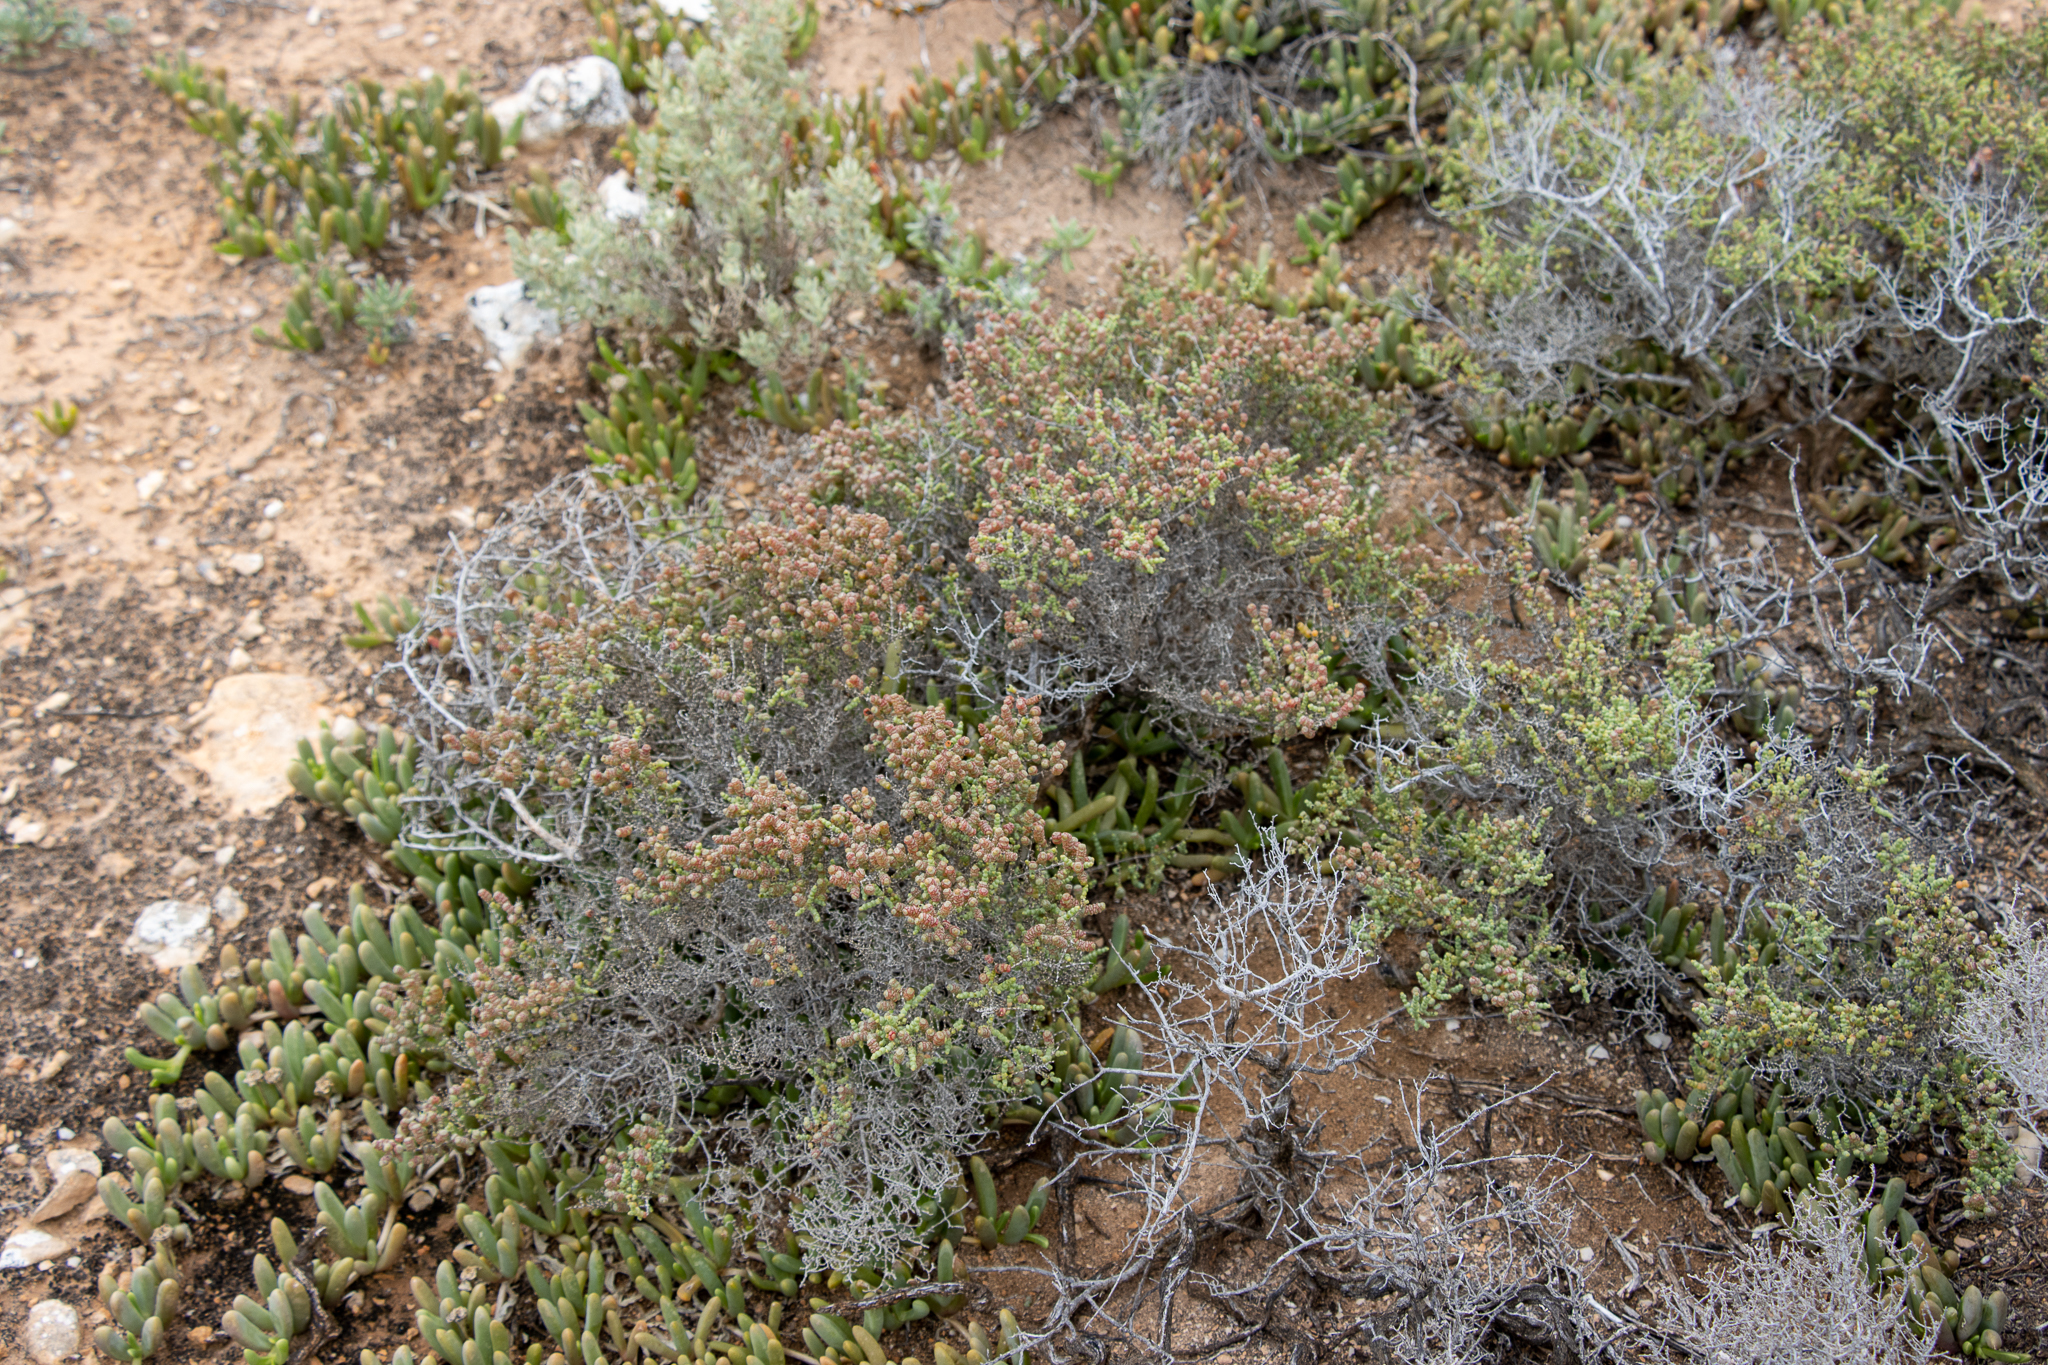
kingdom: Plantae
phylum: Tracheophyta
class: Magnoliopsida
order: Caryophyllales
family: Amaranthaceae
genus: Tecticornia
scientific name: Tecticornia pterygosperma
